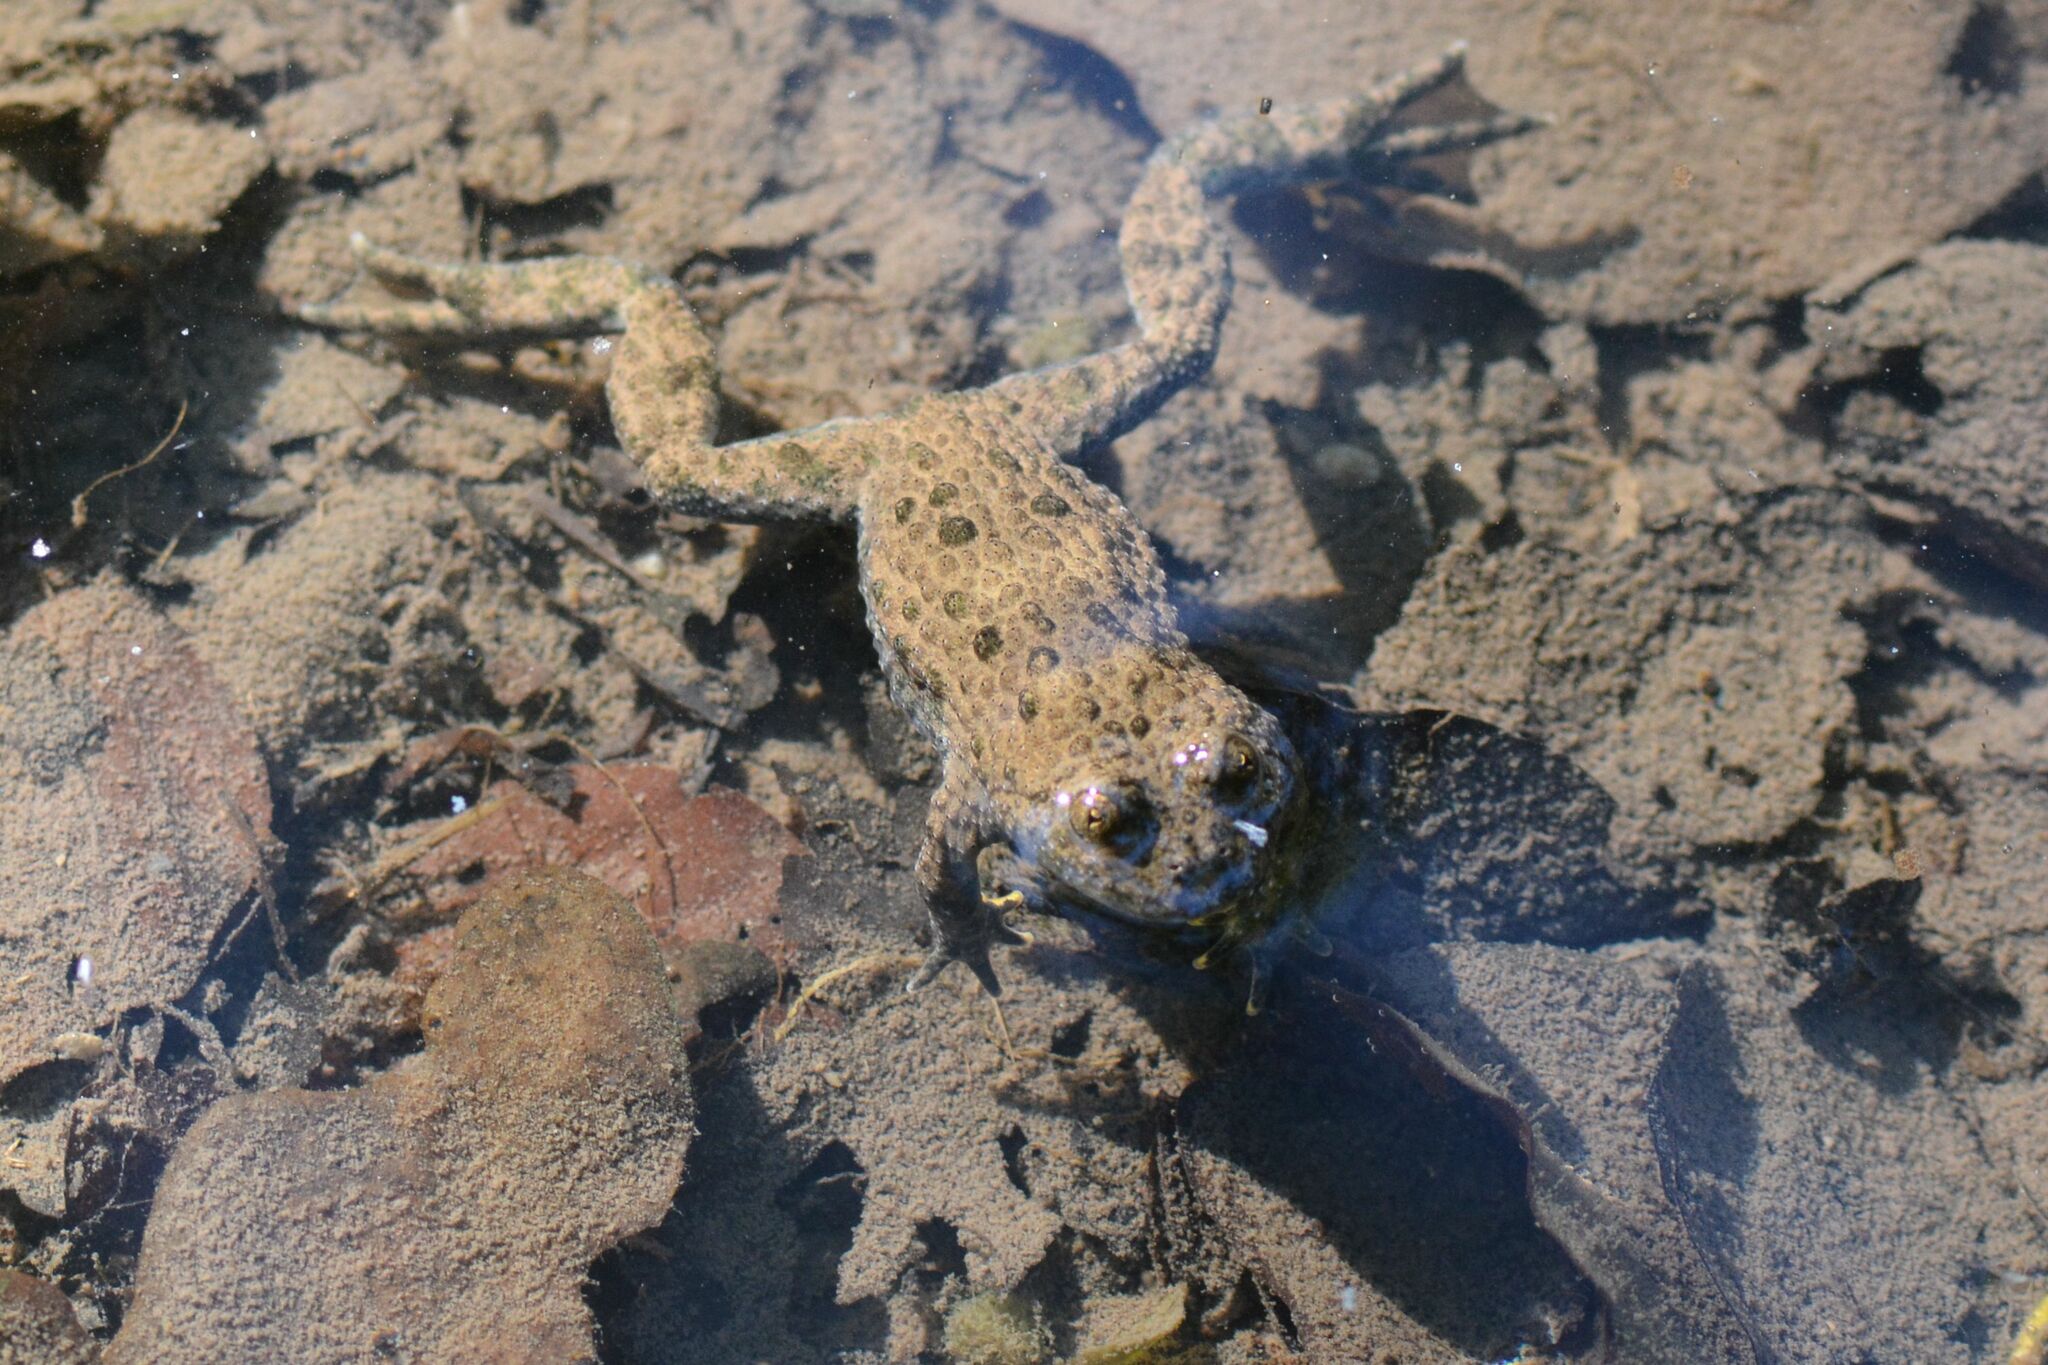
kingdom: Animalia
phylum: Chordata
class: Amphibia
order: Anura
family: Bombinatoridae
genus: Bombina
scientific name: Bombina variegata
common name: Yellow-bellied toad
